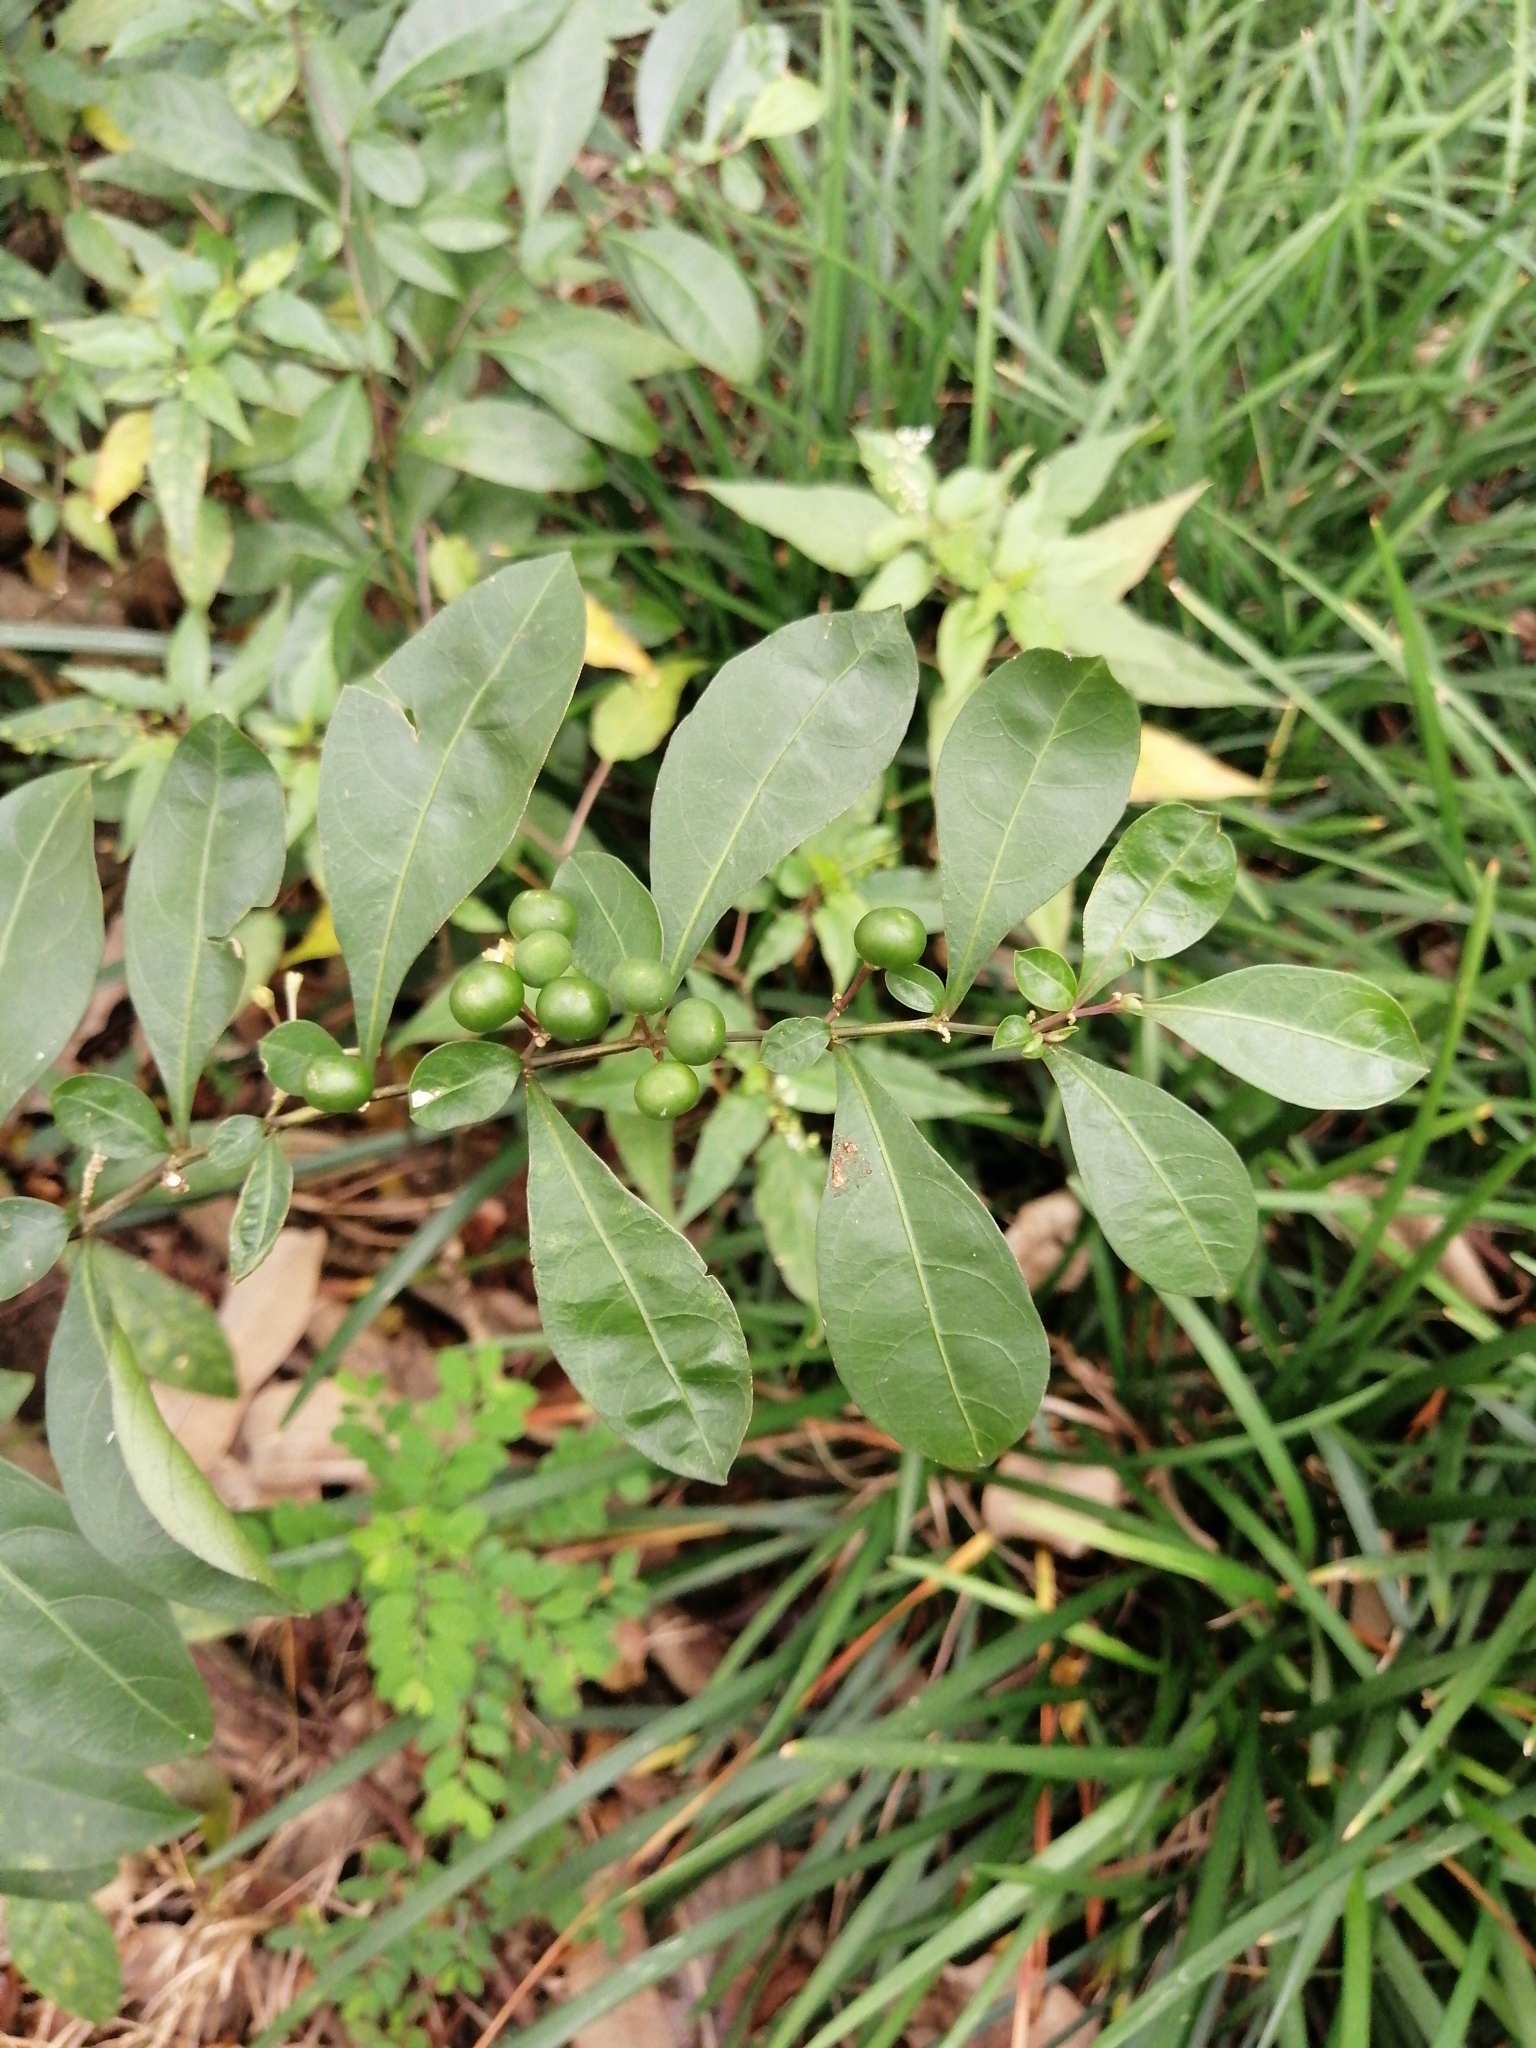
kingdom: Plantae
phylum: Tracheophyta
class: Magnoliopsida
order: Solanales
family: Solanaceae
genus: Solanum
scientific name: Solanum diphyllum
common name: Twoleaf nightshade
